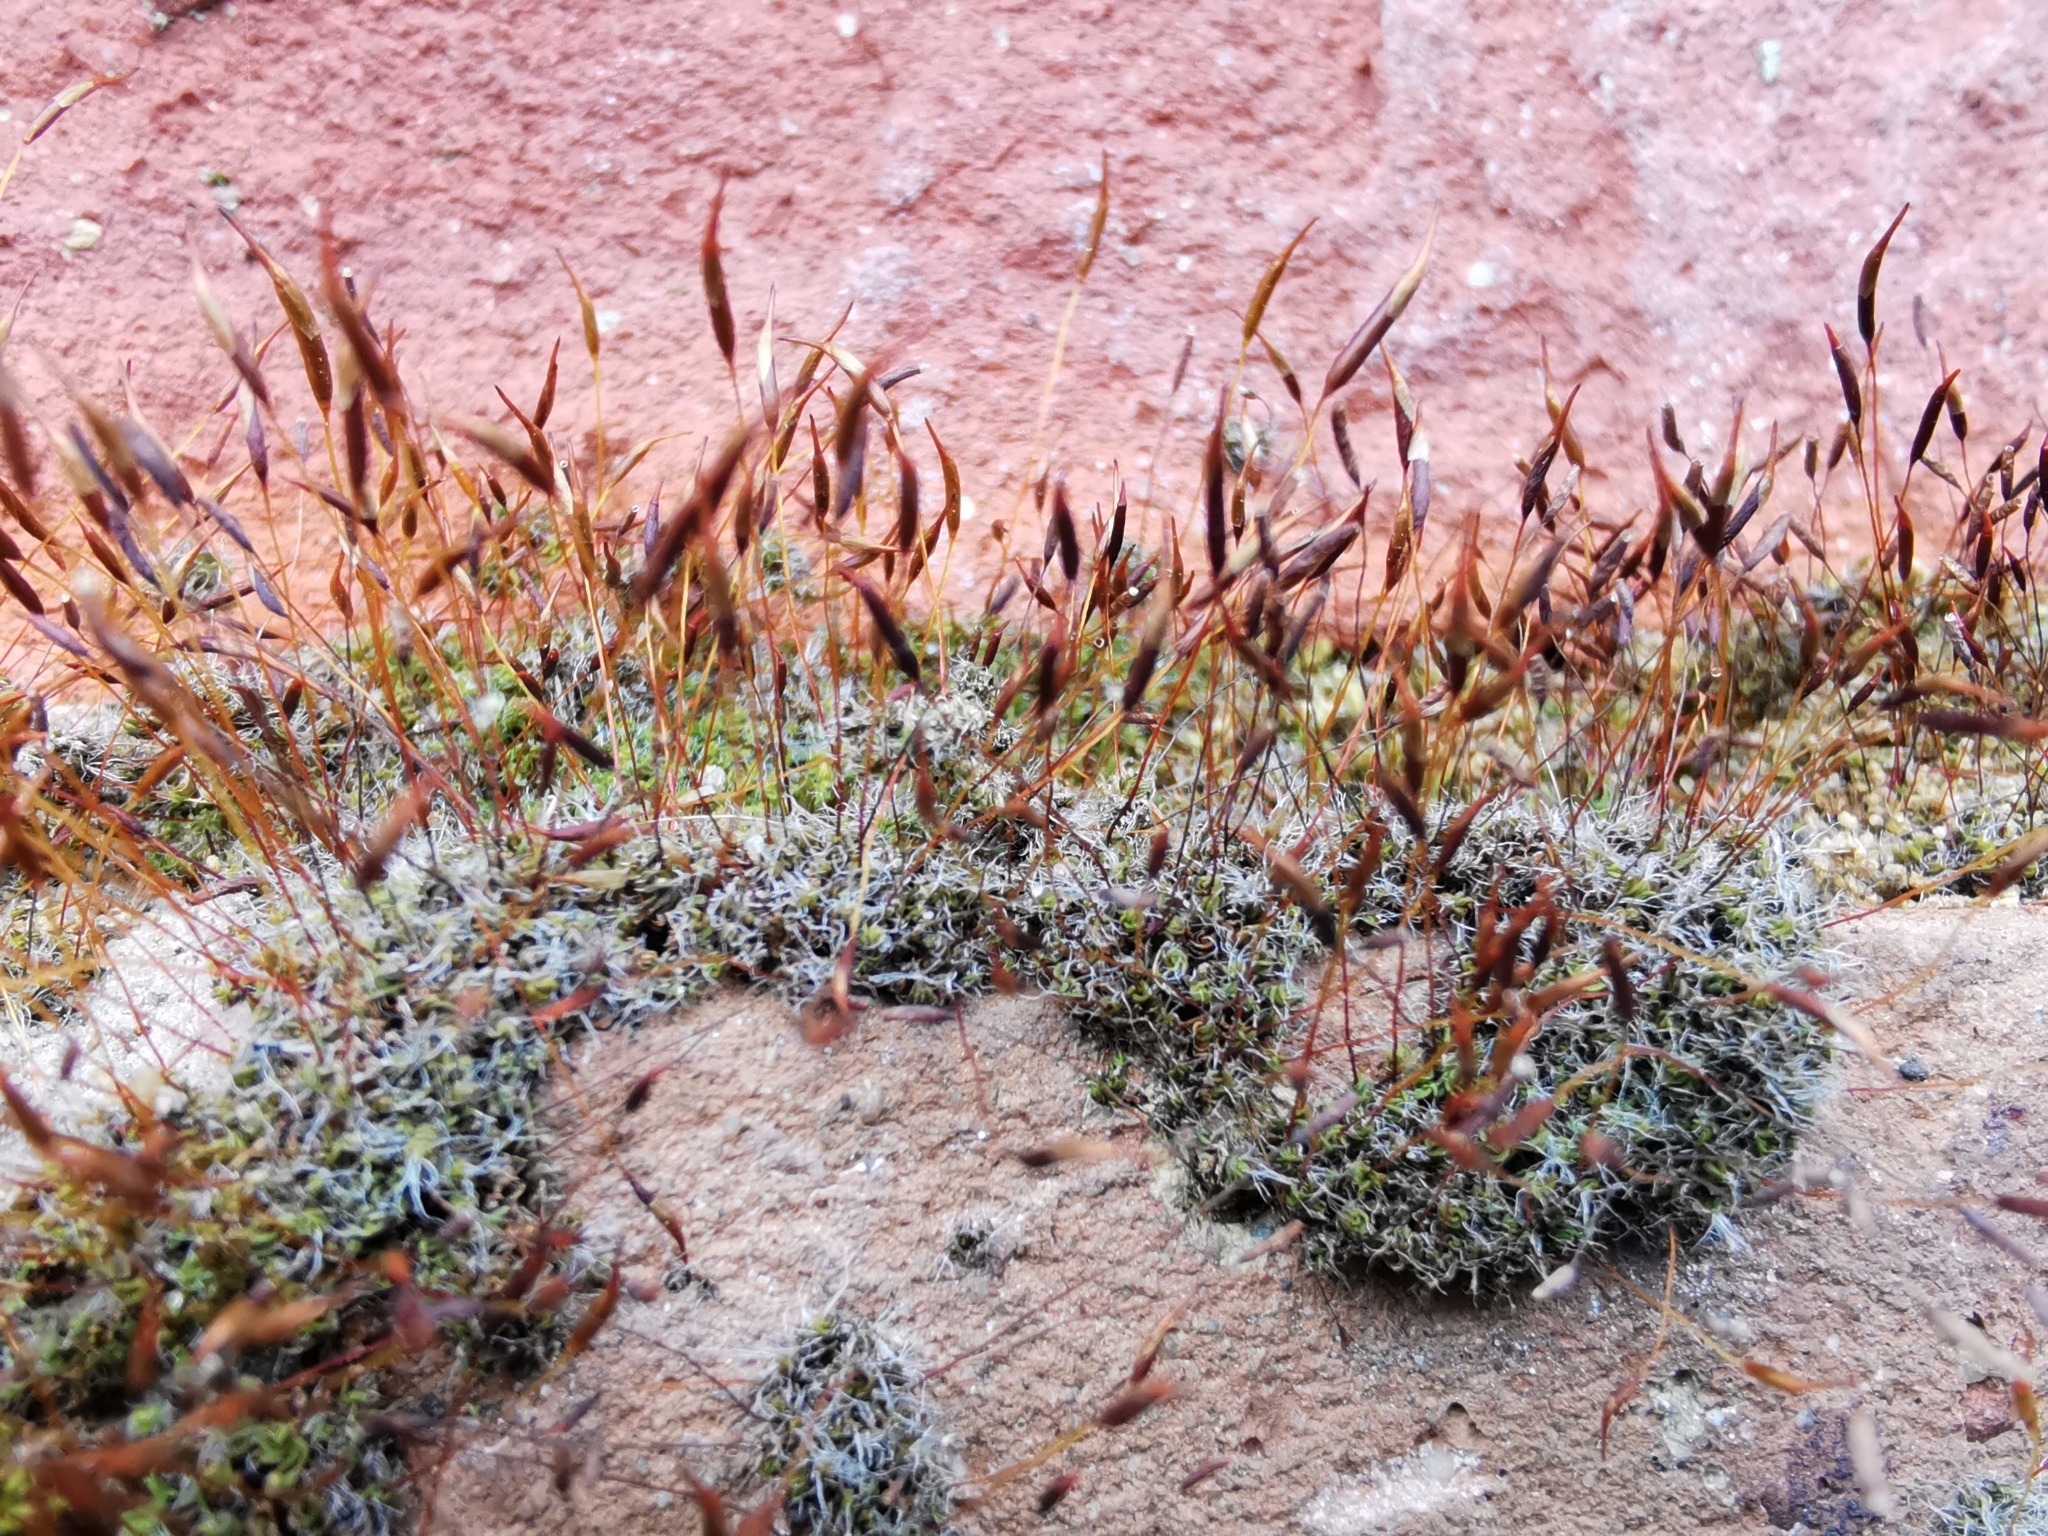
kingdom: Plantae
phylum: Bryophyta
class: Bryopsida
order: Pottiales
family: Pottiaceae
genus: Tortula
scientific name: Tortula muralis
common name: Wall screw-moss
